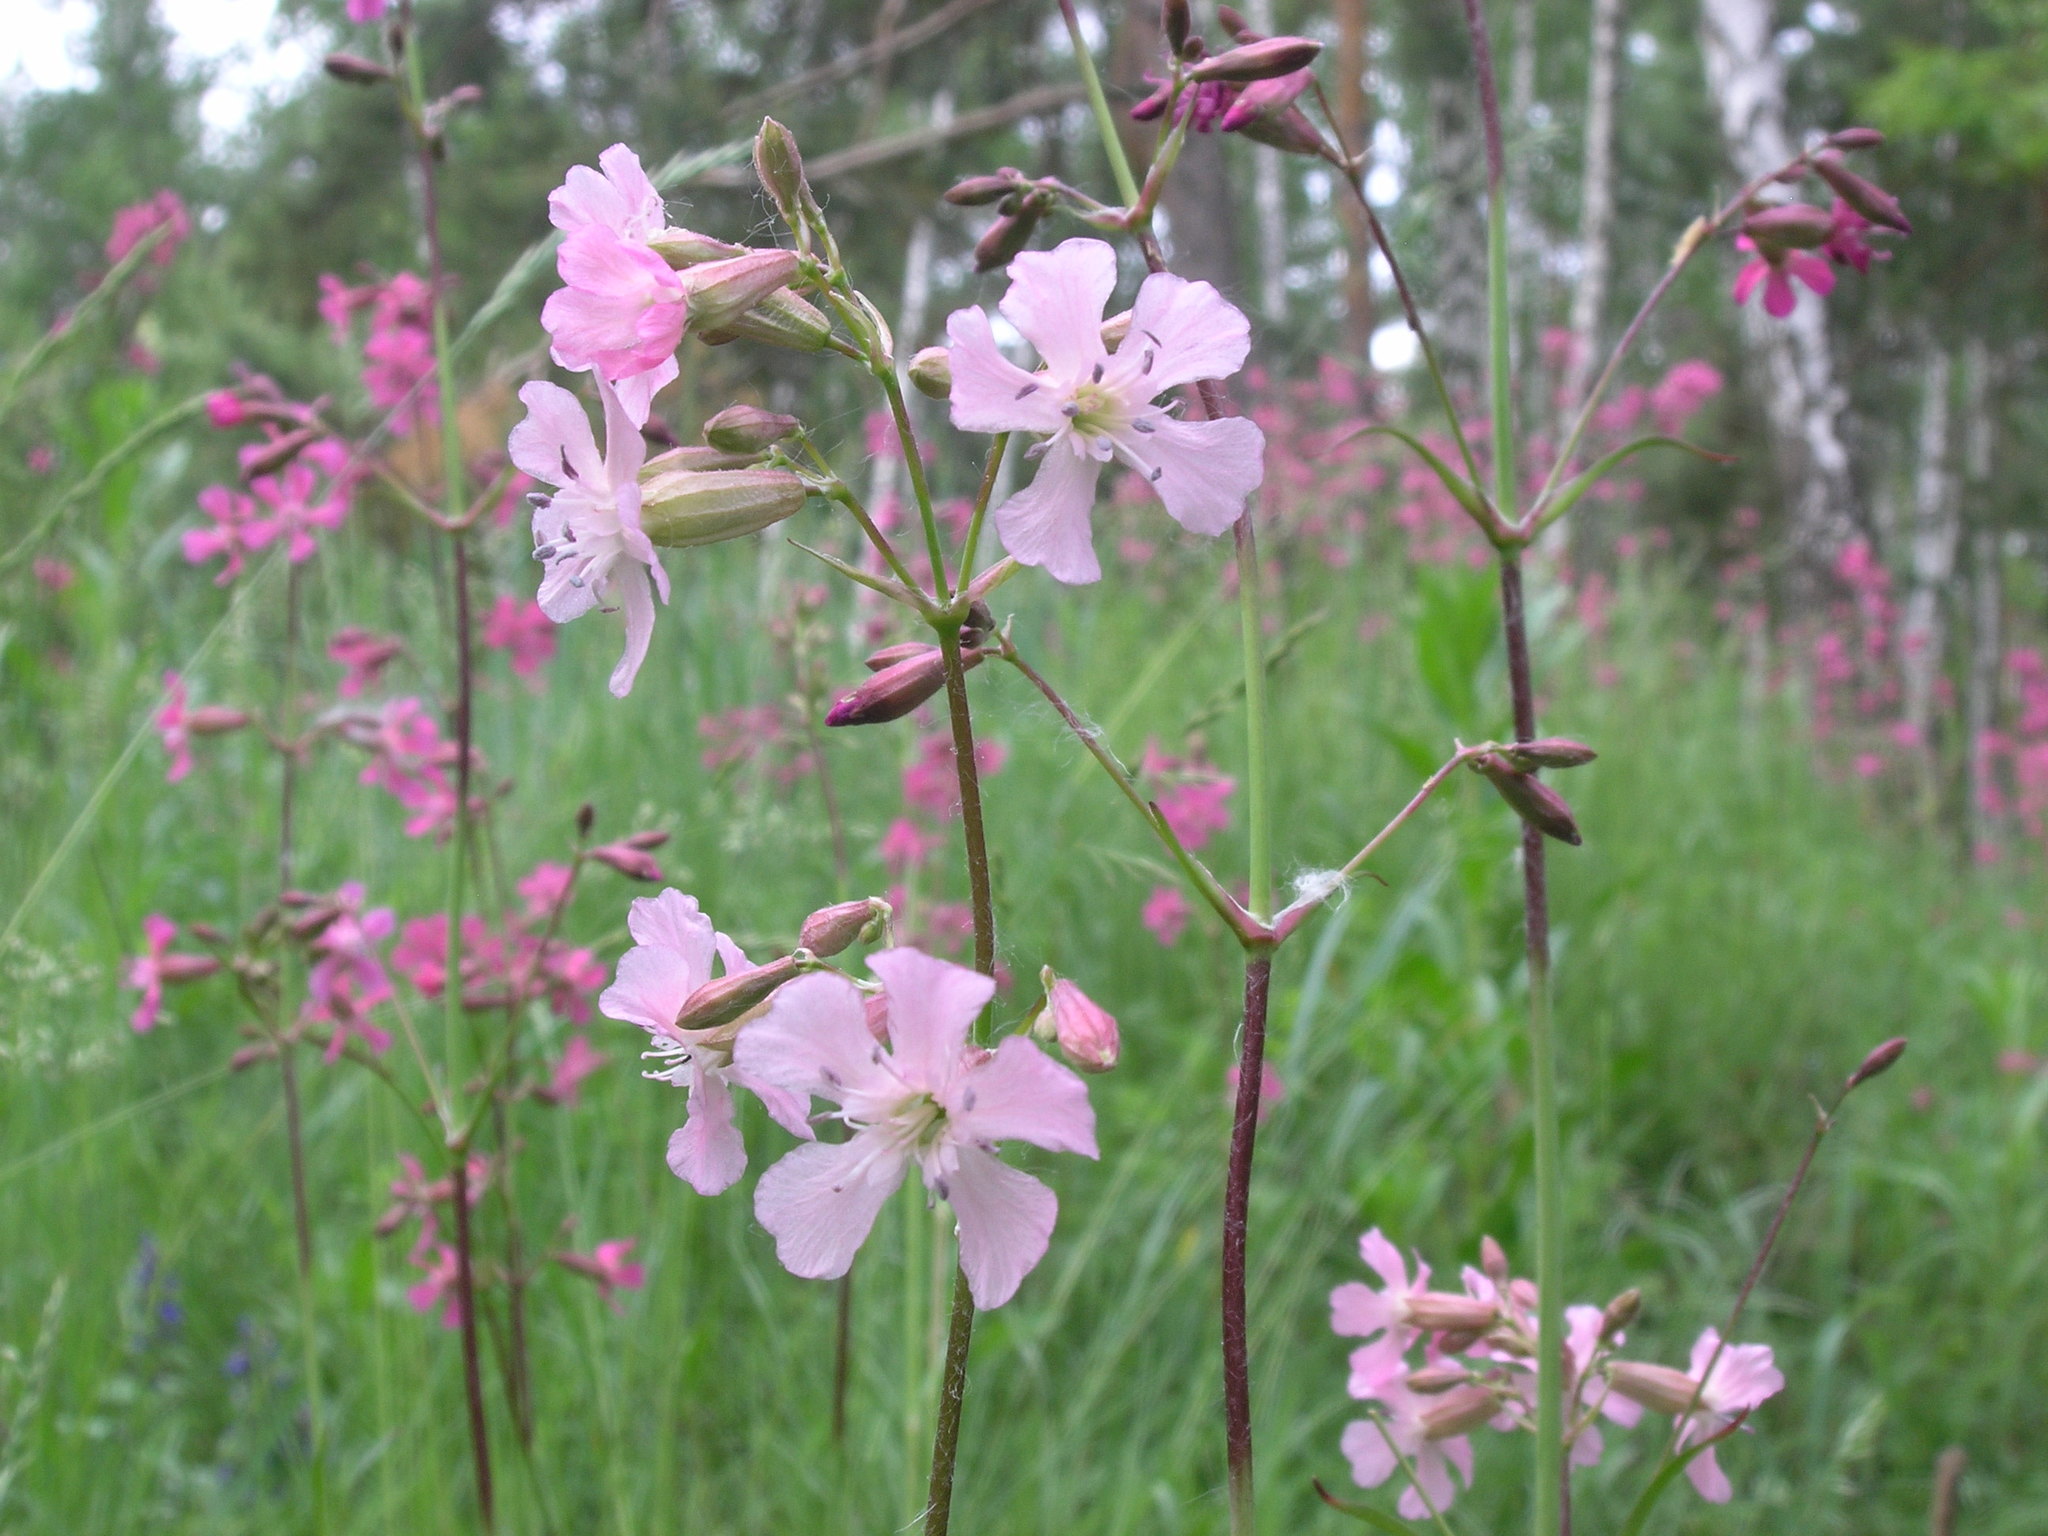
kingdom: Plantae
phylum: Tracheophyta
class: Magnoliopsida
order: Caryophyllales
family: Caryophyllaceae
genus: Viscaria
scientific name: Viscaria vulgaris
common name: Clammy campion
